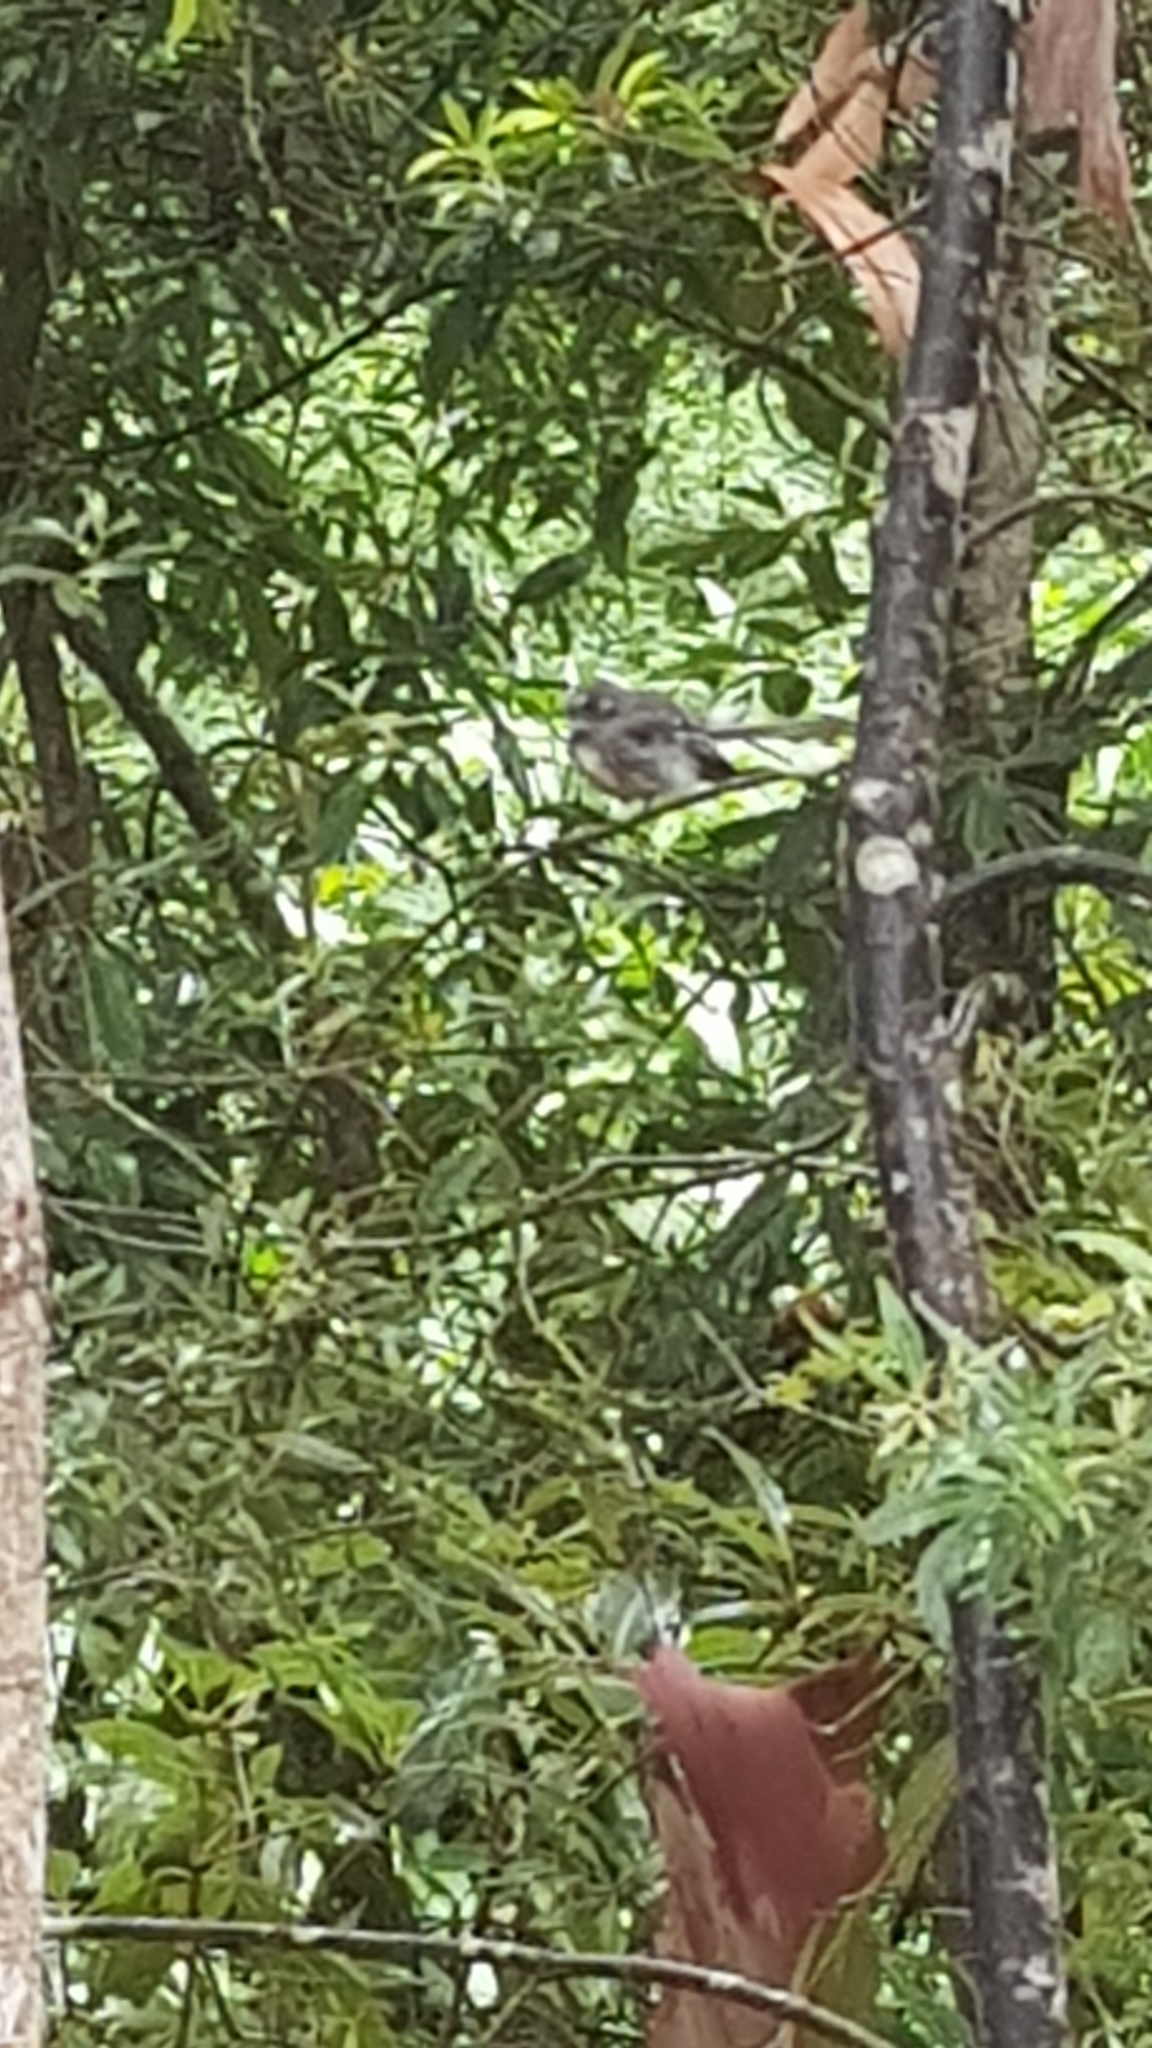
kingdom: Animalia
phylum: Chordata
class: Aves
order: Passeriformes
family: Rhipiduridae
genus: Rhipidura
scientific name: Rhipidura albiscapa
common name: Grey fantail
